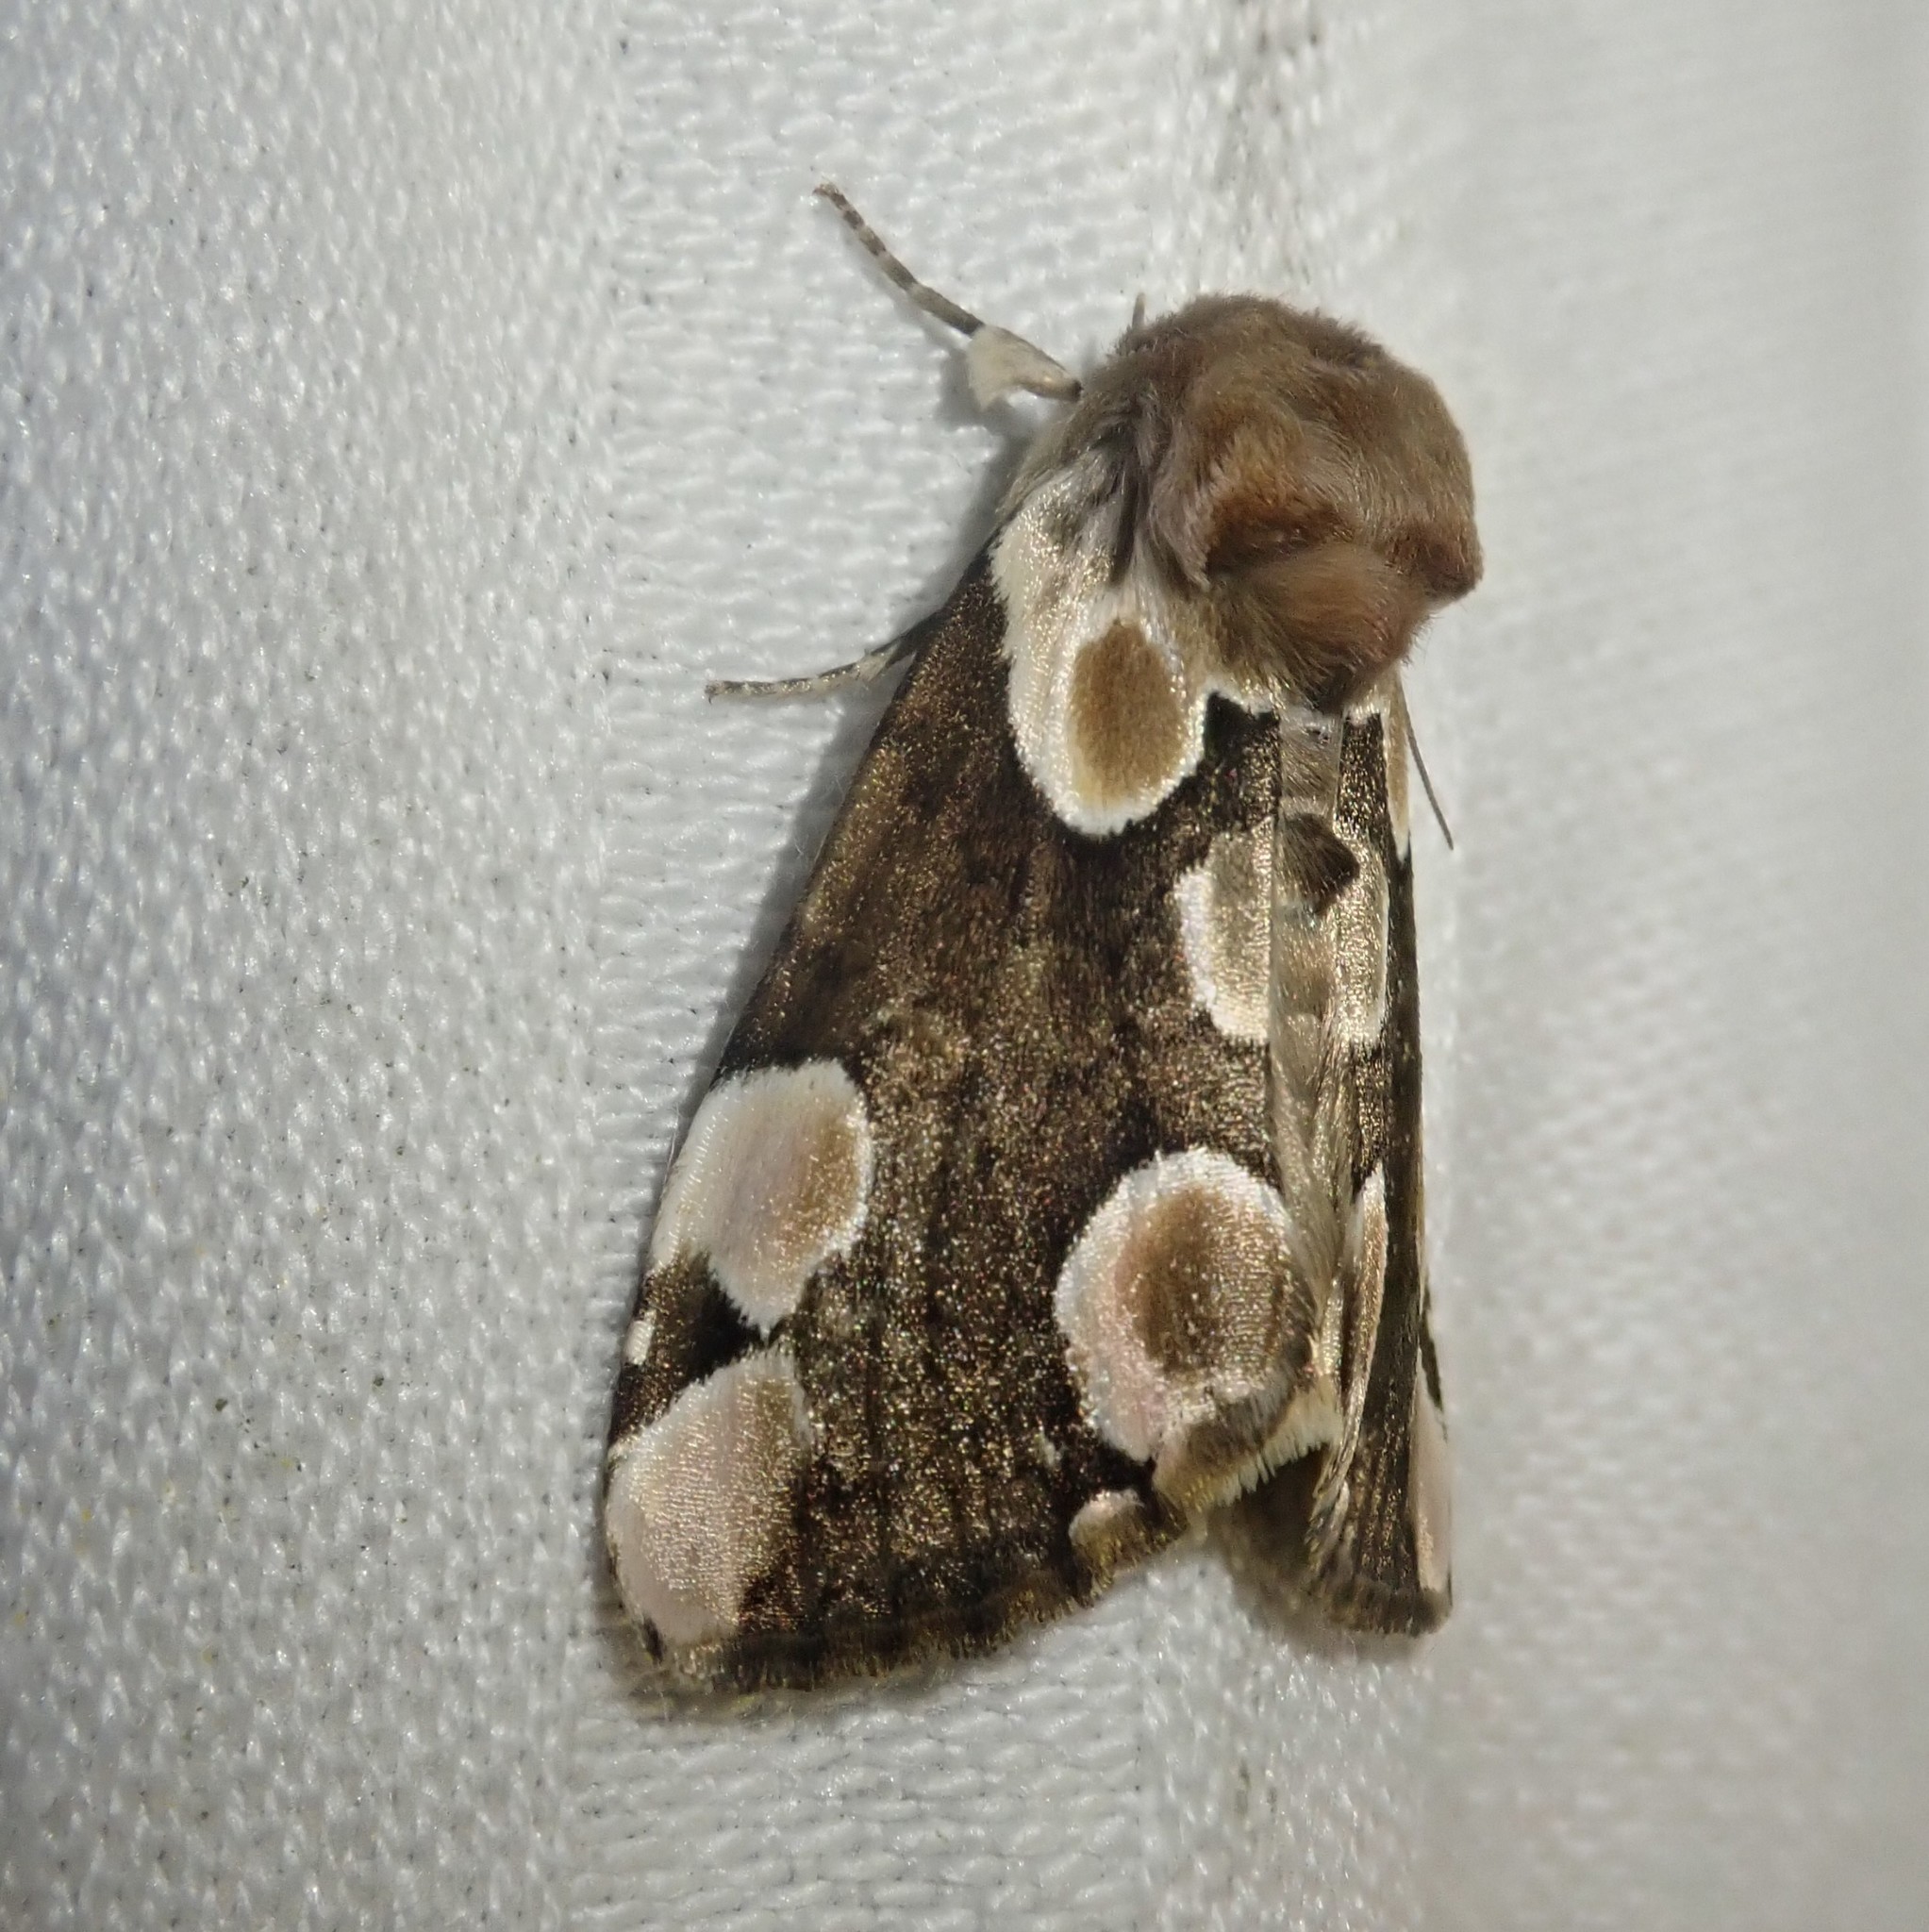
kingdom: Animalia
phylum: Arthropoda
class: Insecta
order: Lepidoptera
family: Drepanidae
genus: Thyatira
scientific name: Thyatira batis
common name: Peach blossom
